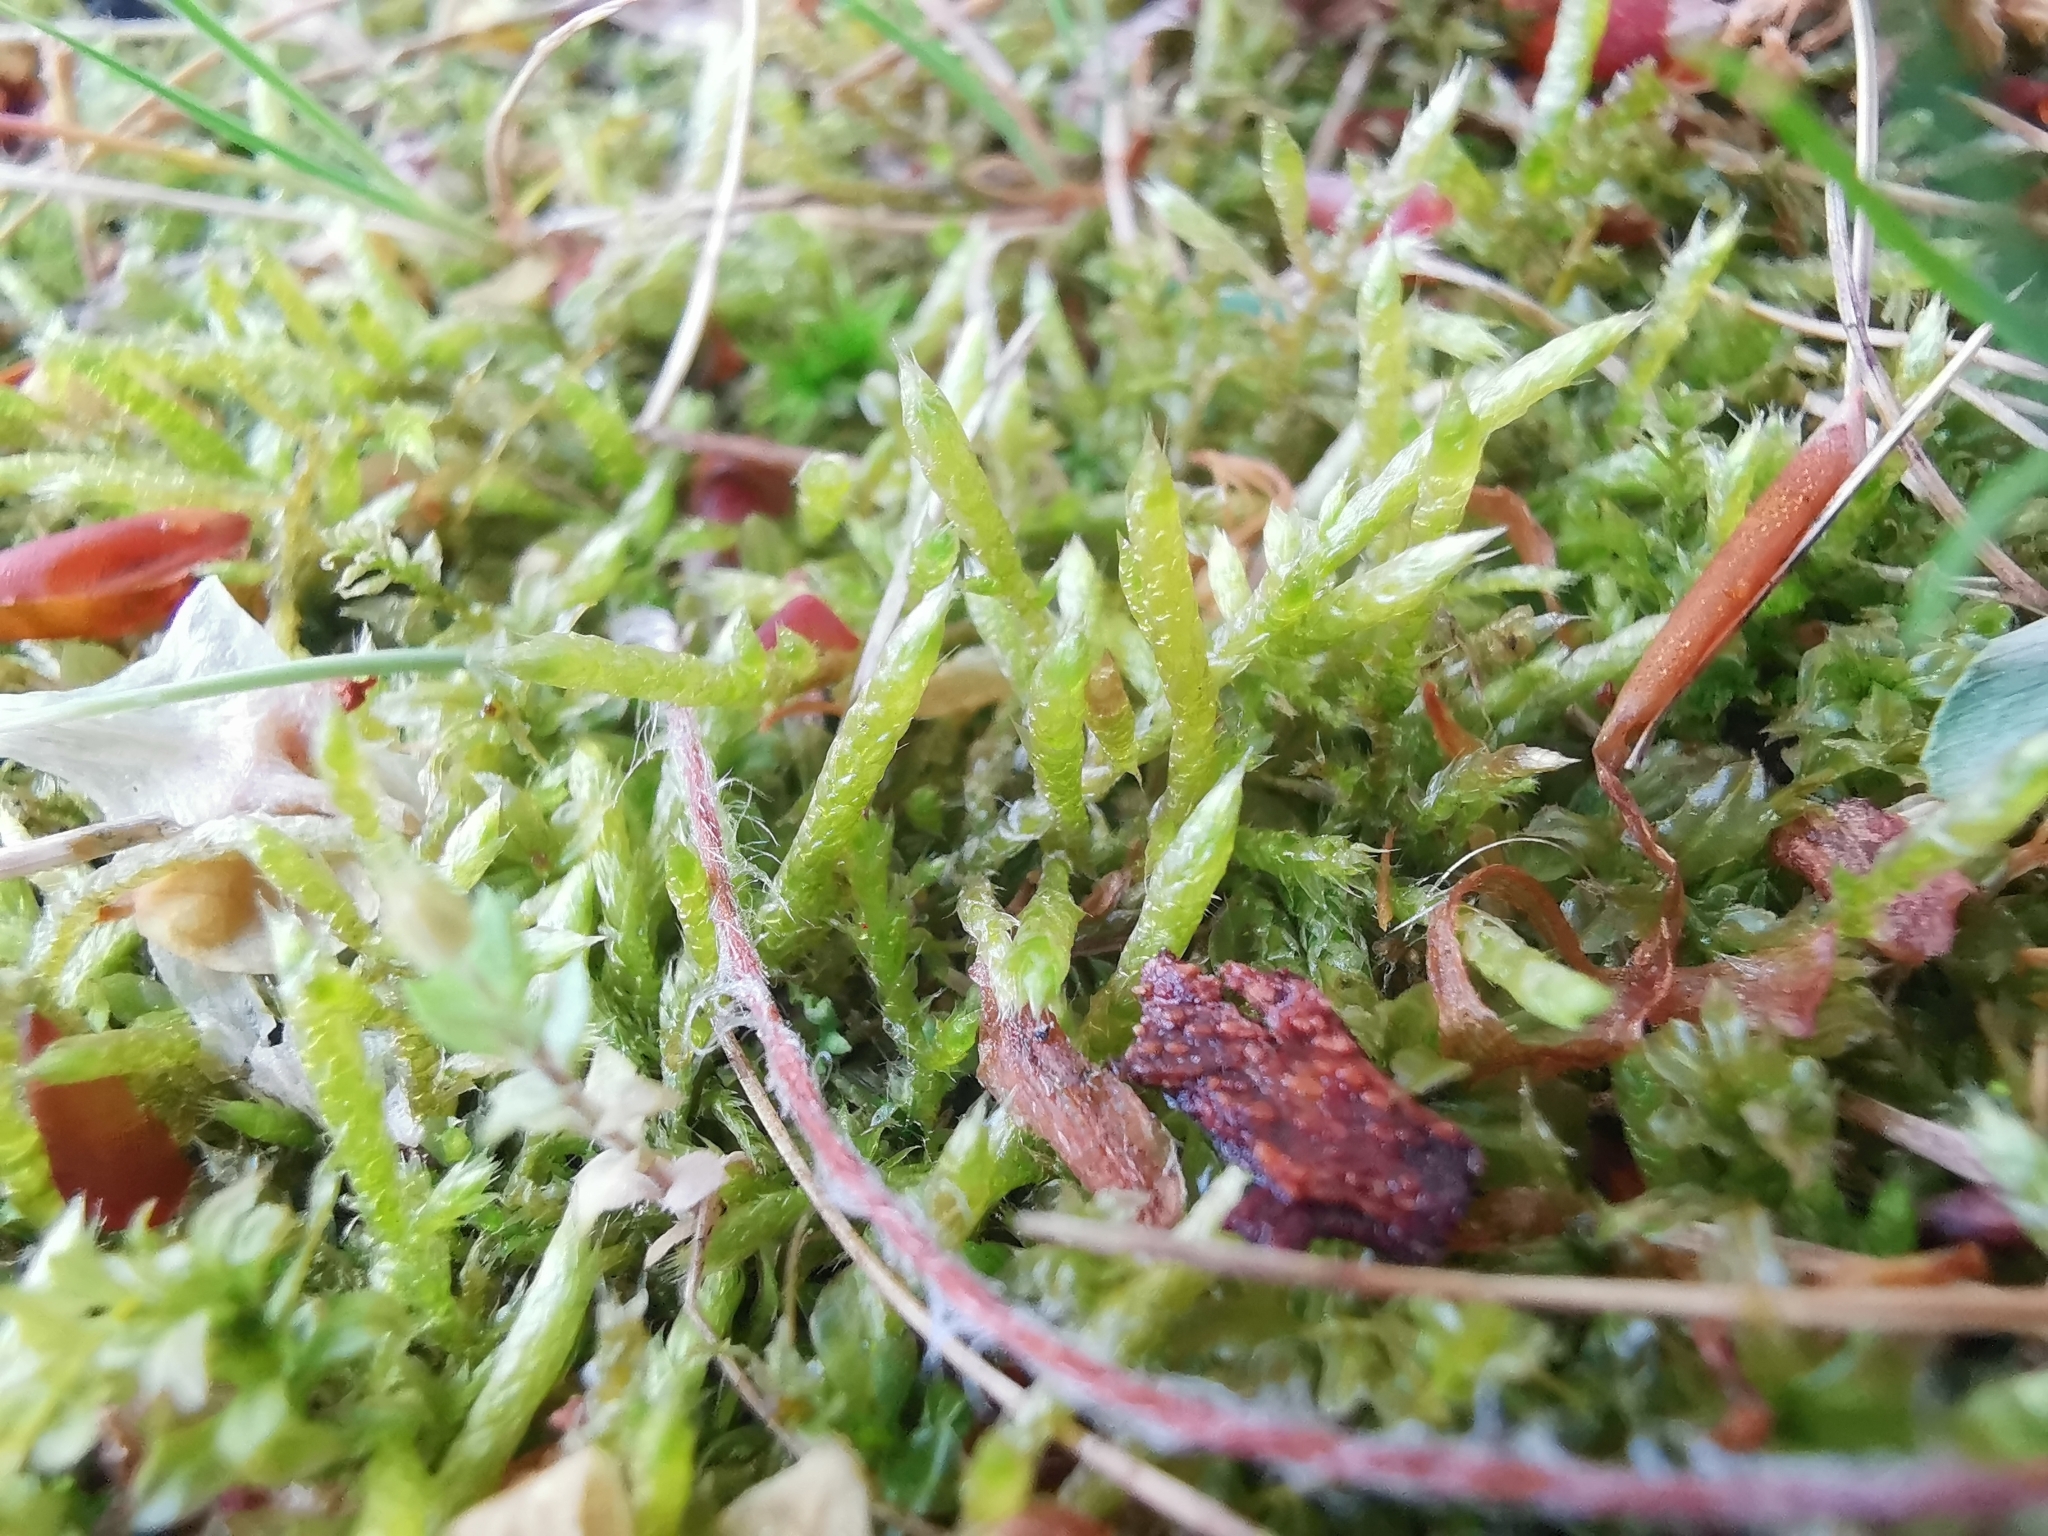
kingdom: Plantae
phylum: Bryophyta
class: Bryopsida
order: Hypnales
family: Brachytheciaceae
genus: Pseudoscleropodium
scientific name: Pseudoscleropodium purum
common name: Neat feather-moss
